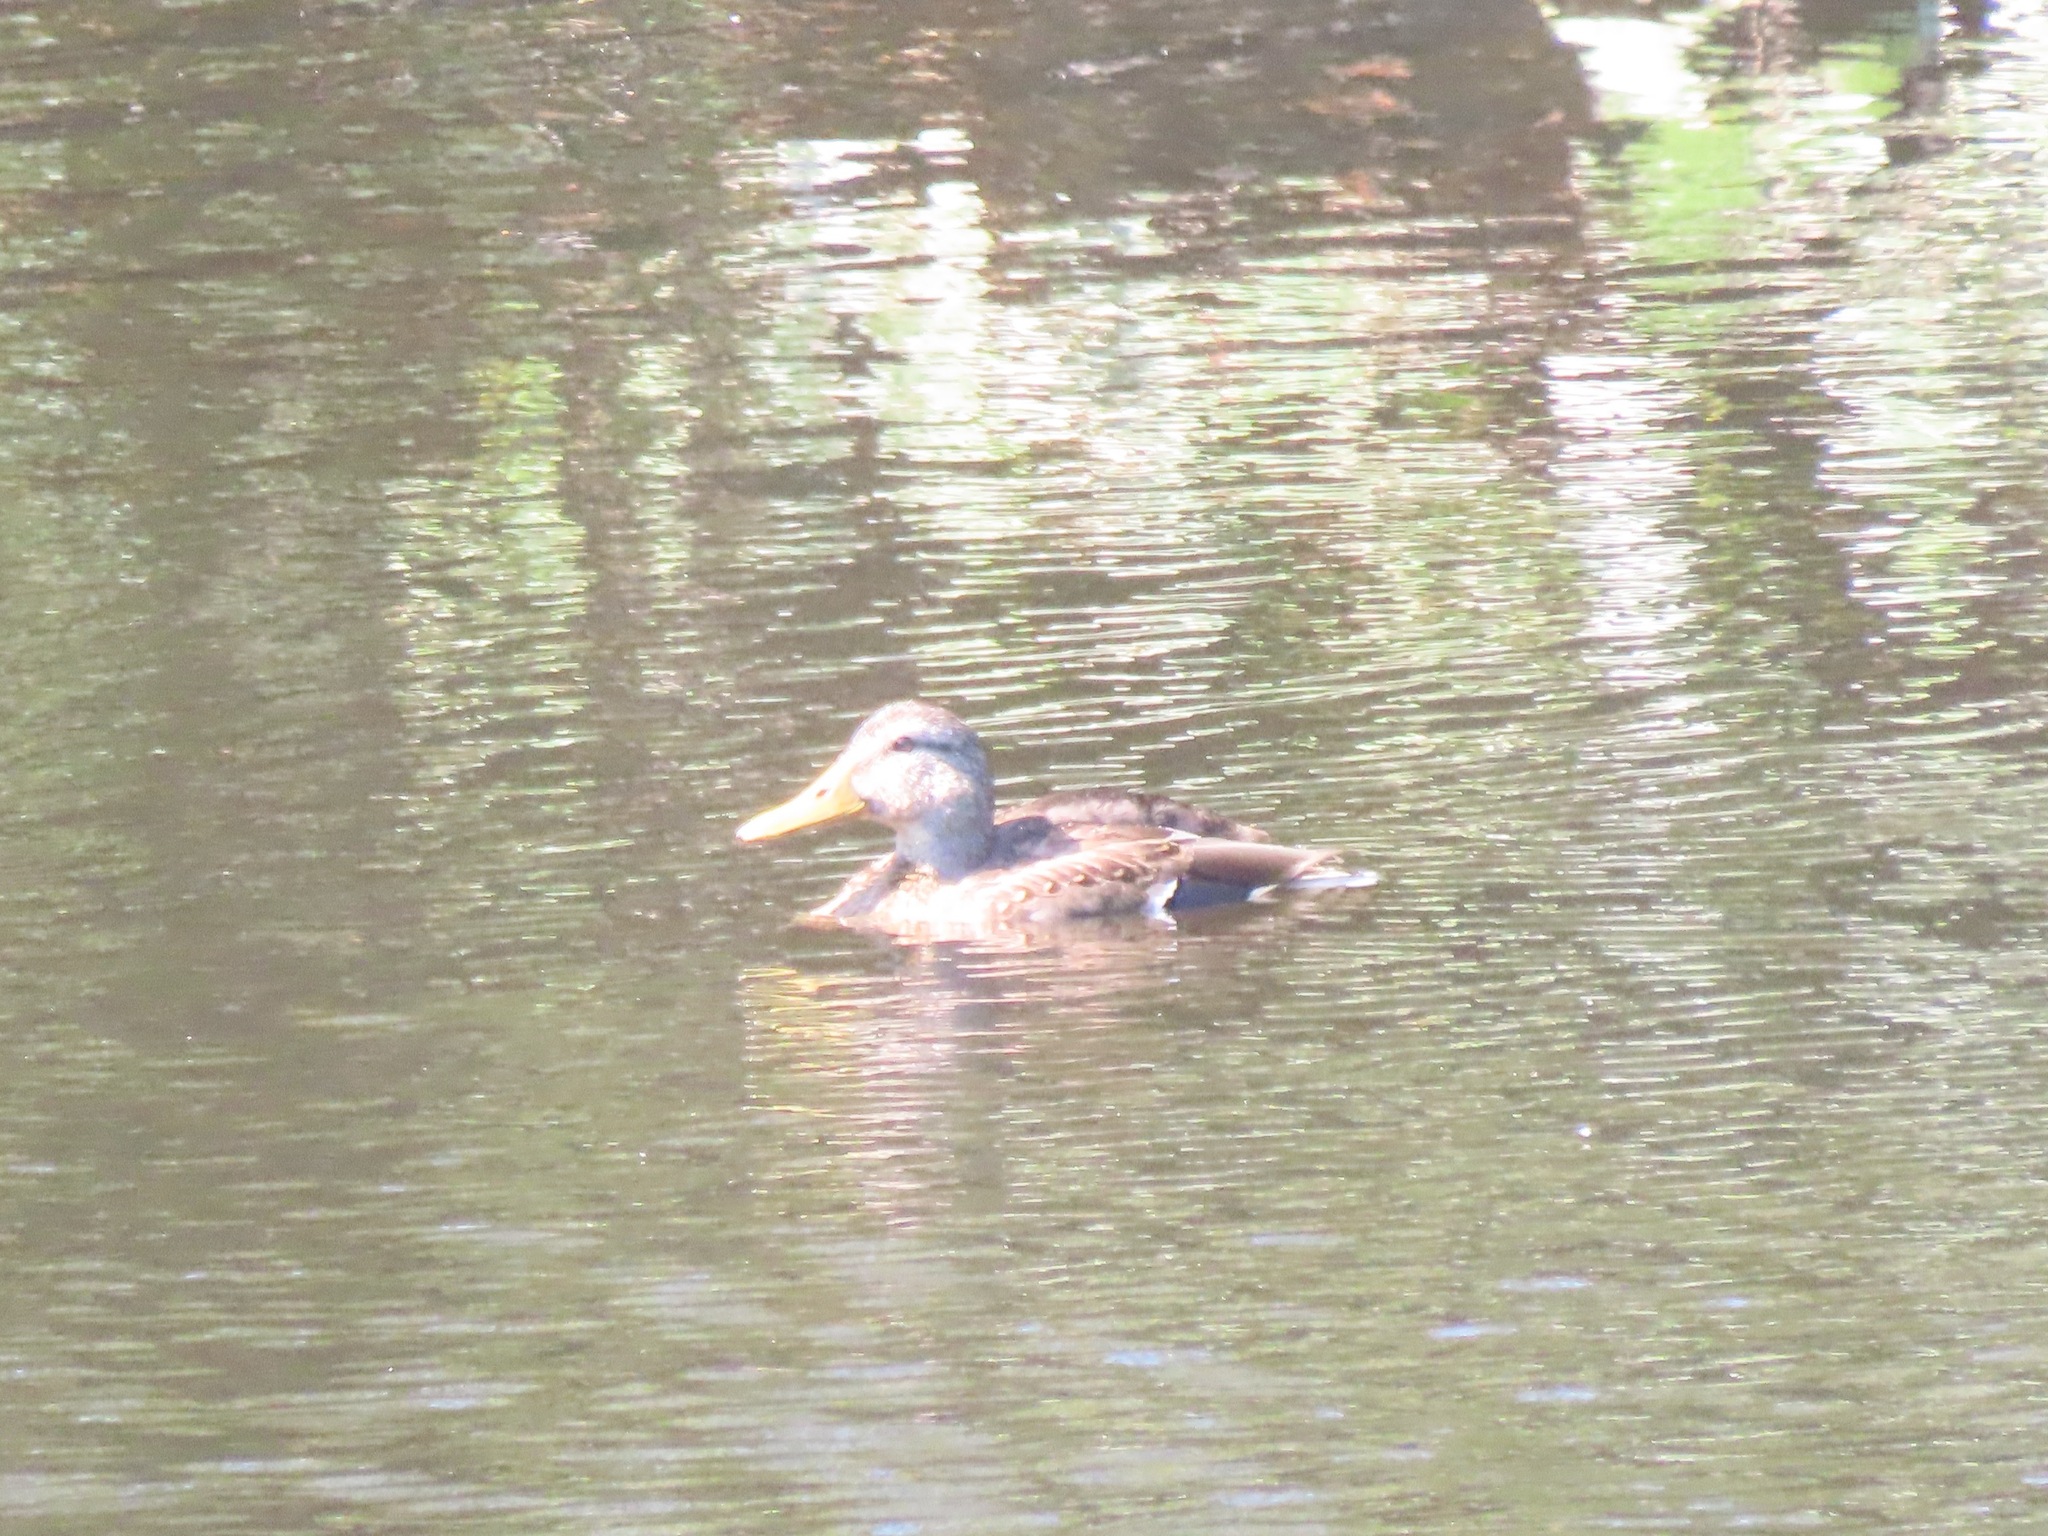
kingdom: Animalia
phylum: Chordata
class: Aves
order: Anseriformes
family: Anatidae
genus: Anas
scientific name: Anas platyrhynchos
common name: Mallard
